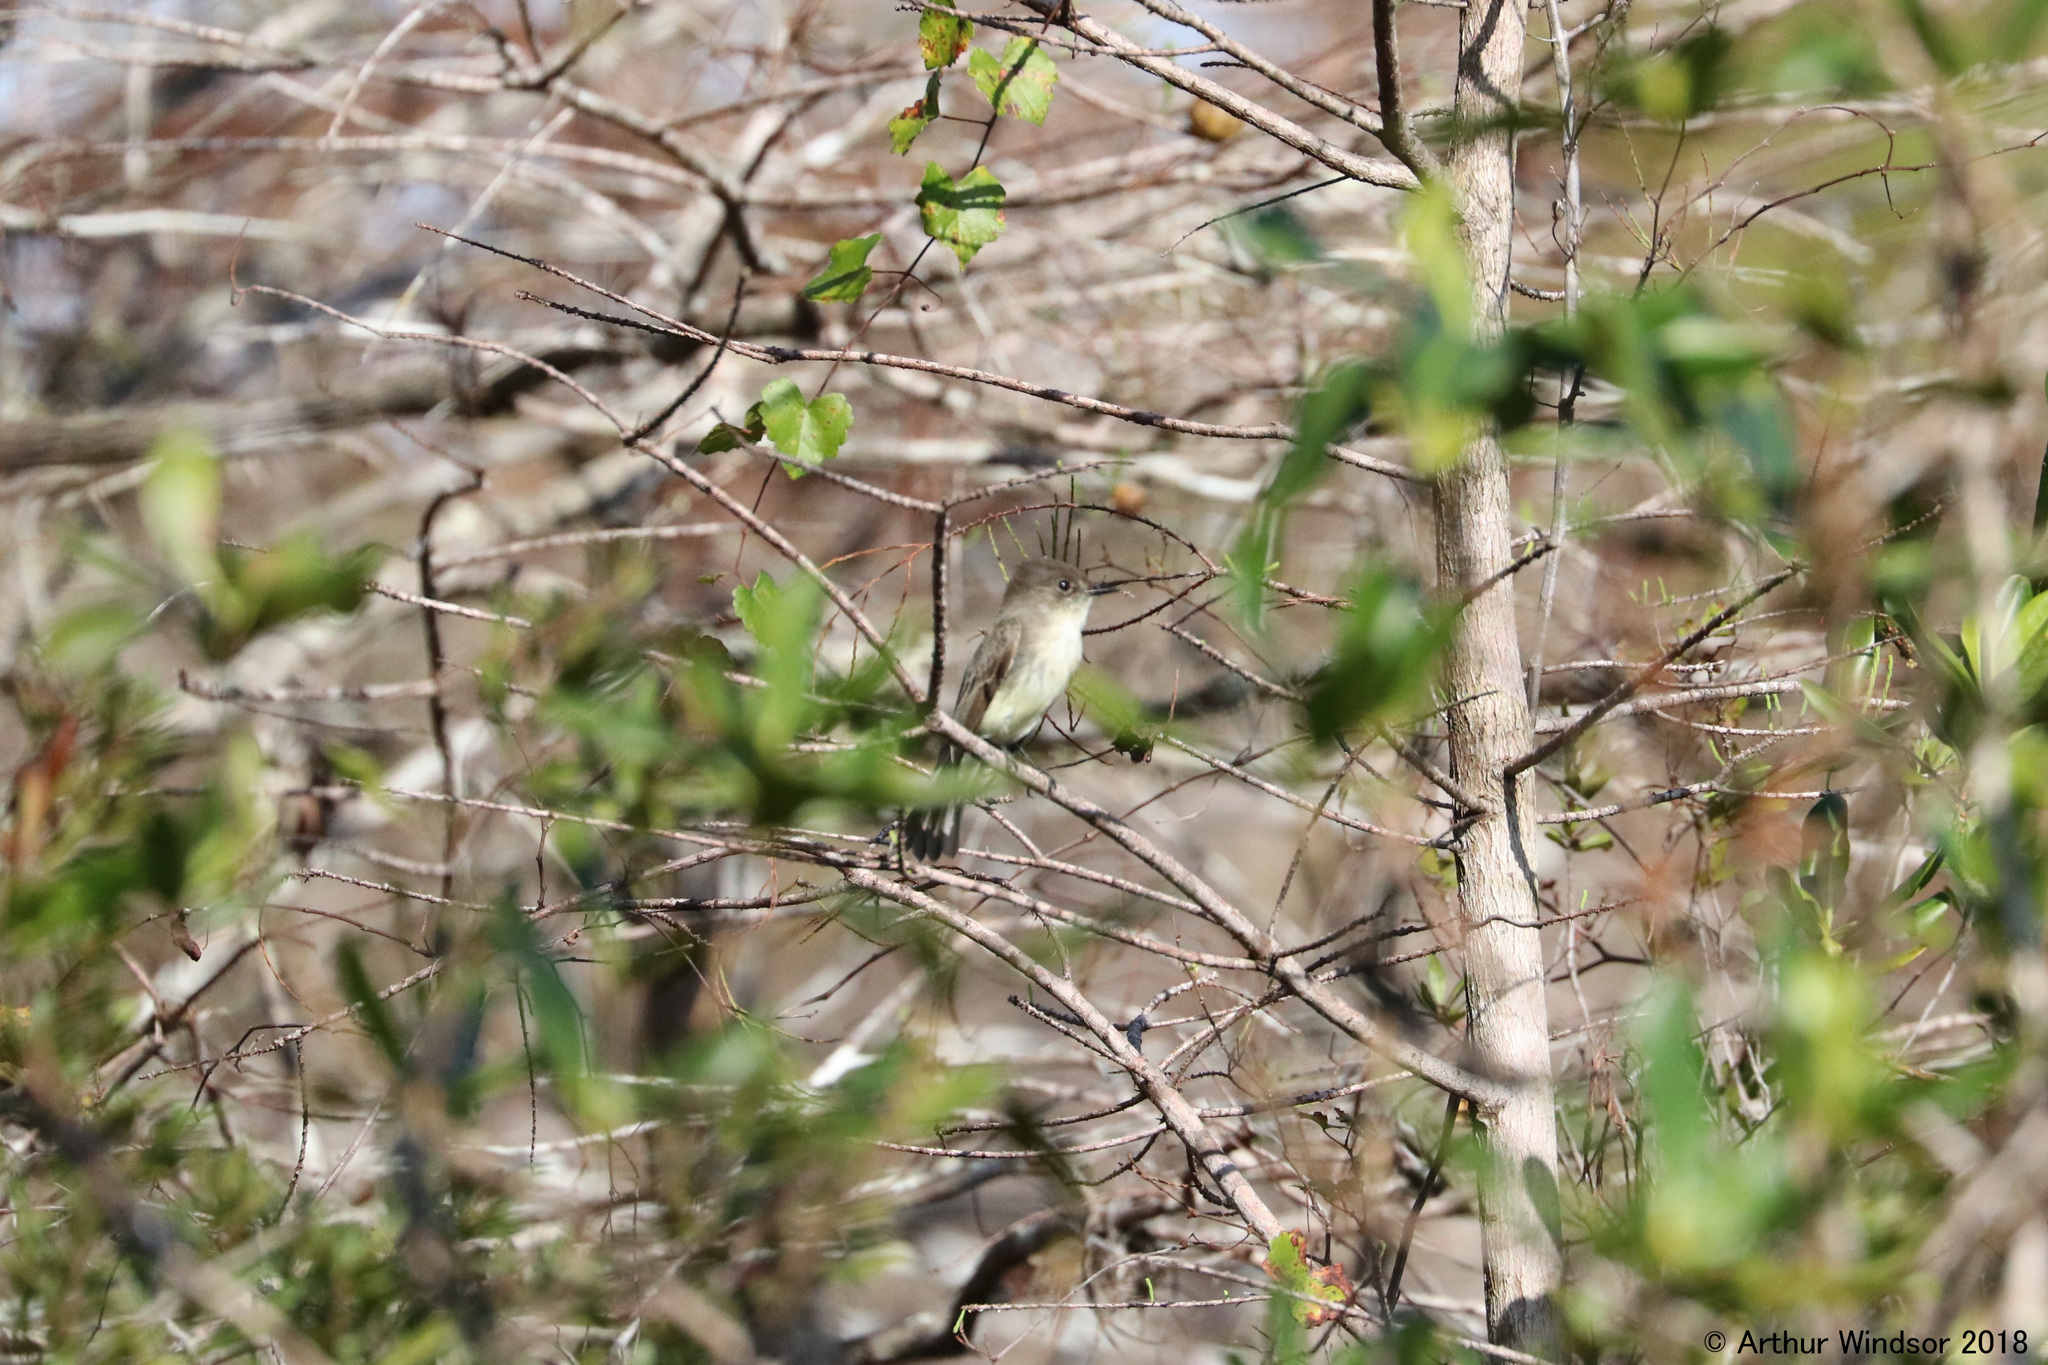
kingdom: Animalia
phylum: Chordata
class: Aves
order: Passeriformes
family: Tyrannidae
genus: Sayornis
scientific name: Sayornis phoebe
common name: Eastern phoebe
